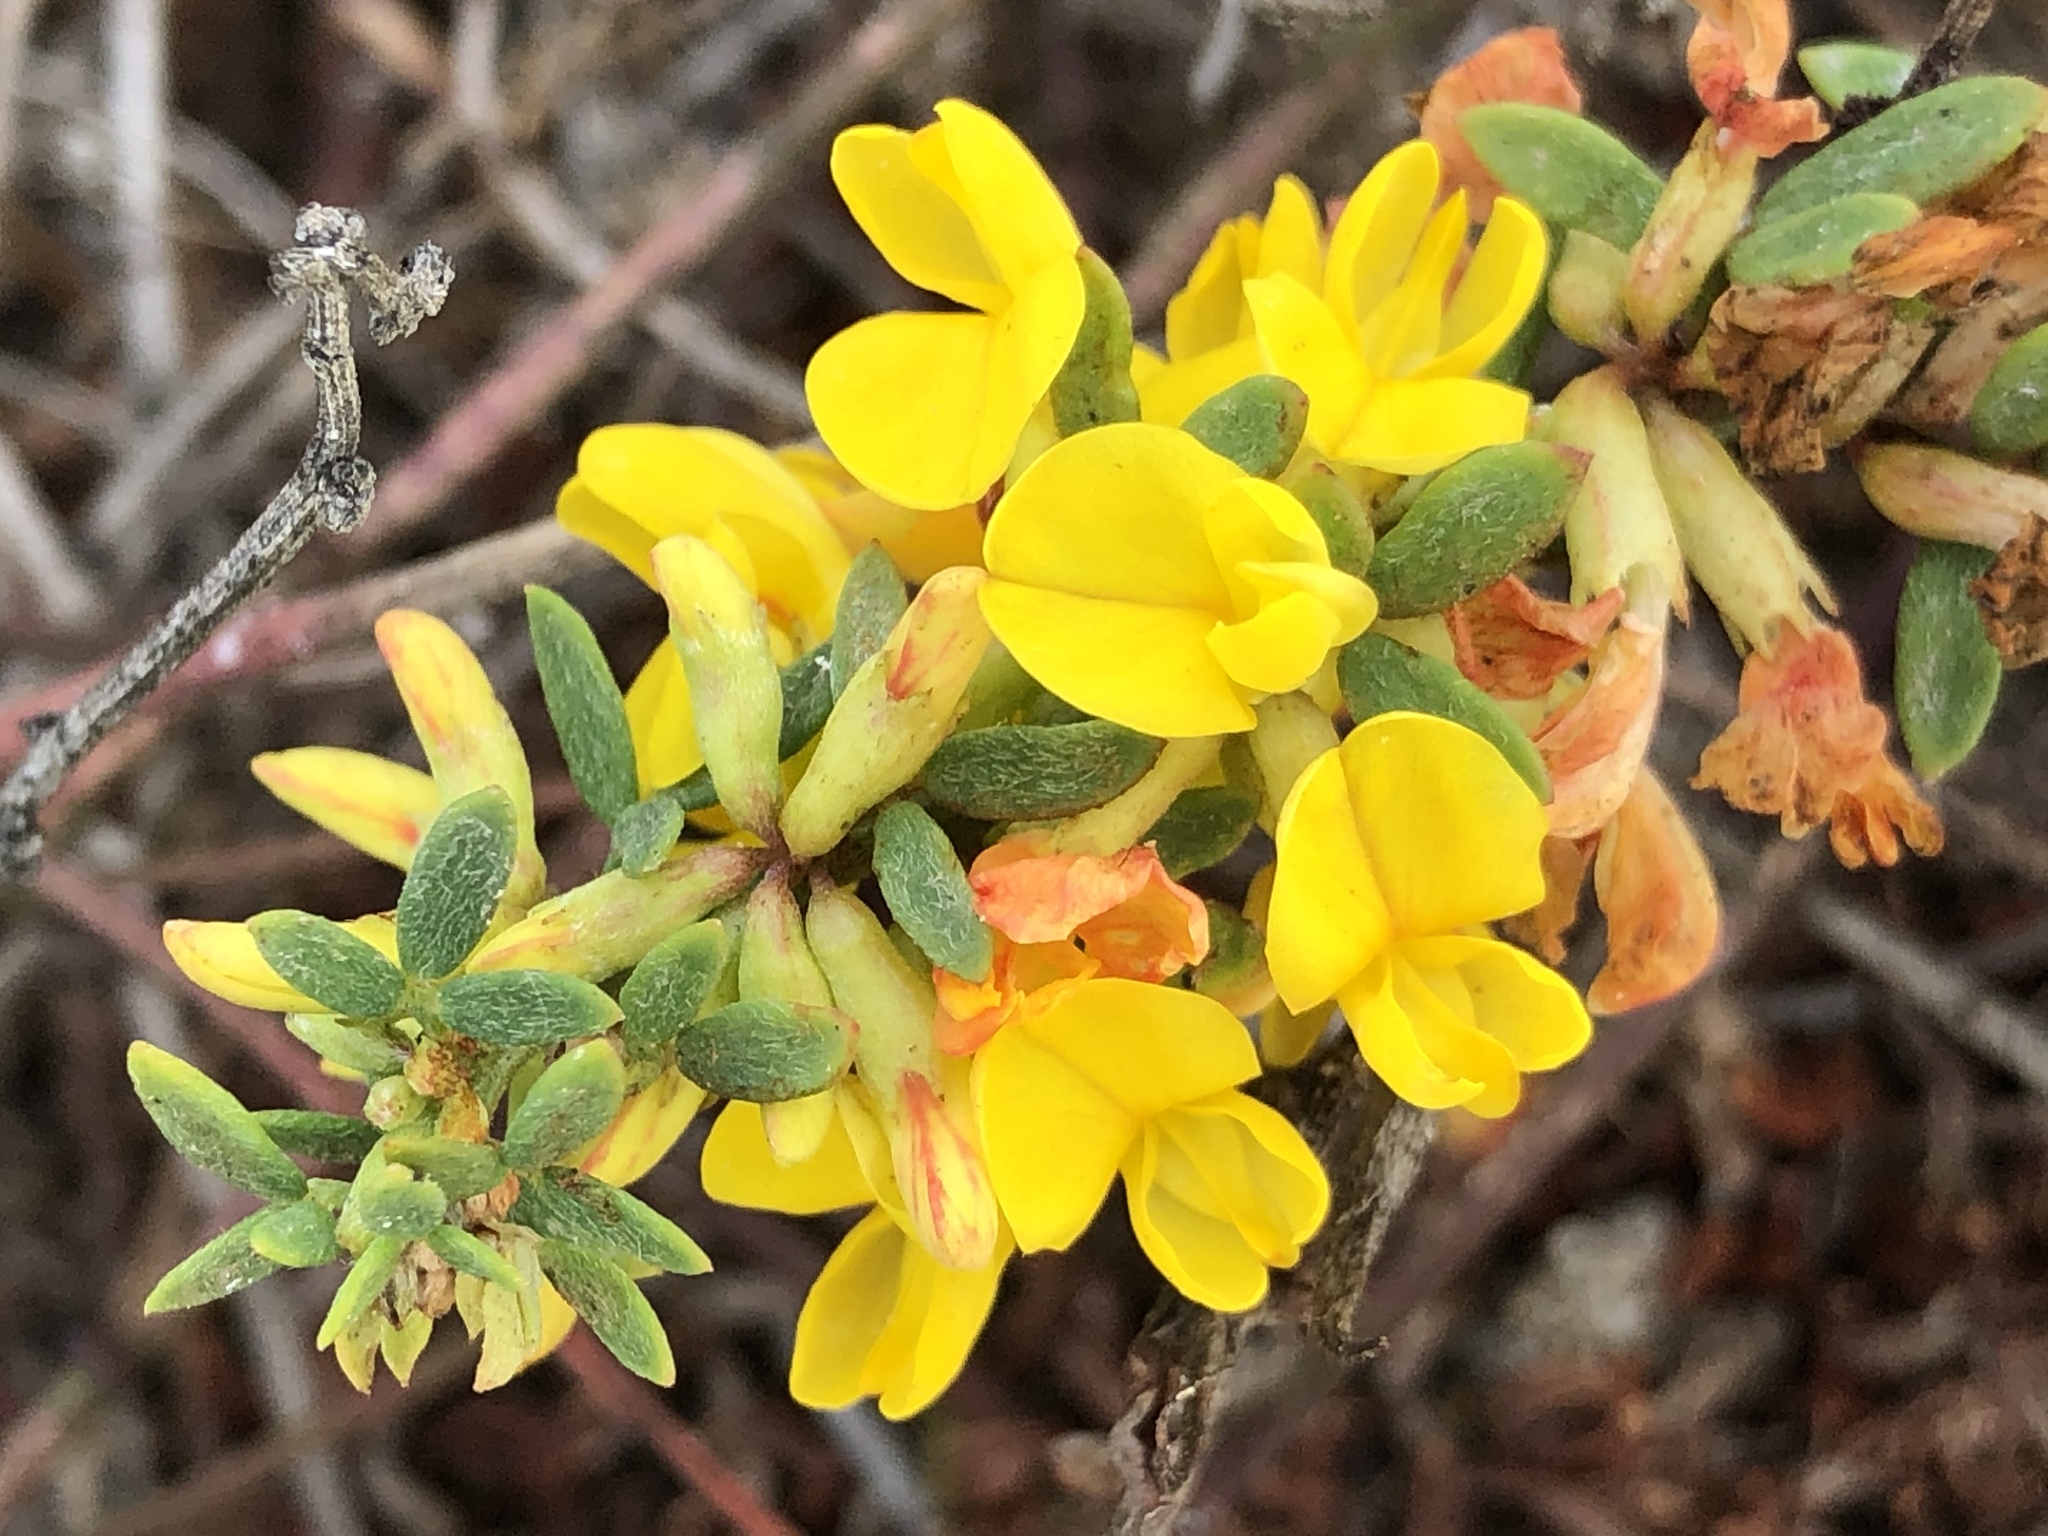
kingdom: Plantae
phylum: Tracheophyta
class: Magnoliopsida
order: Fabales
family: Fabaceae
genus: Acmispon
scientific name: Acmispon glaber
